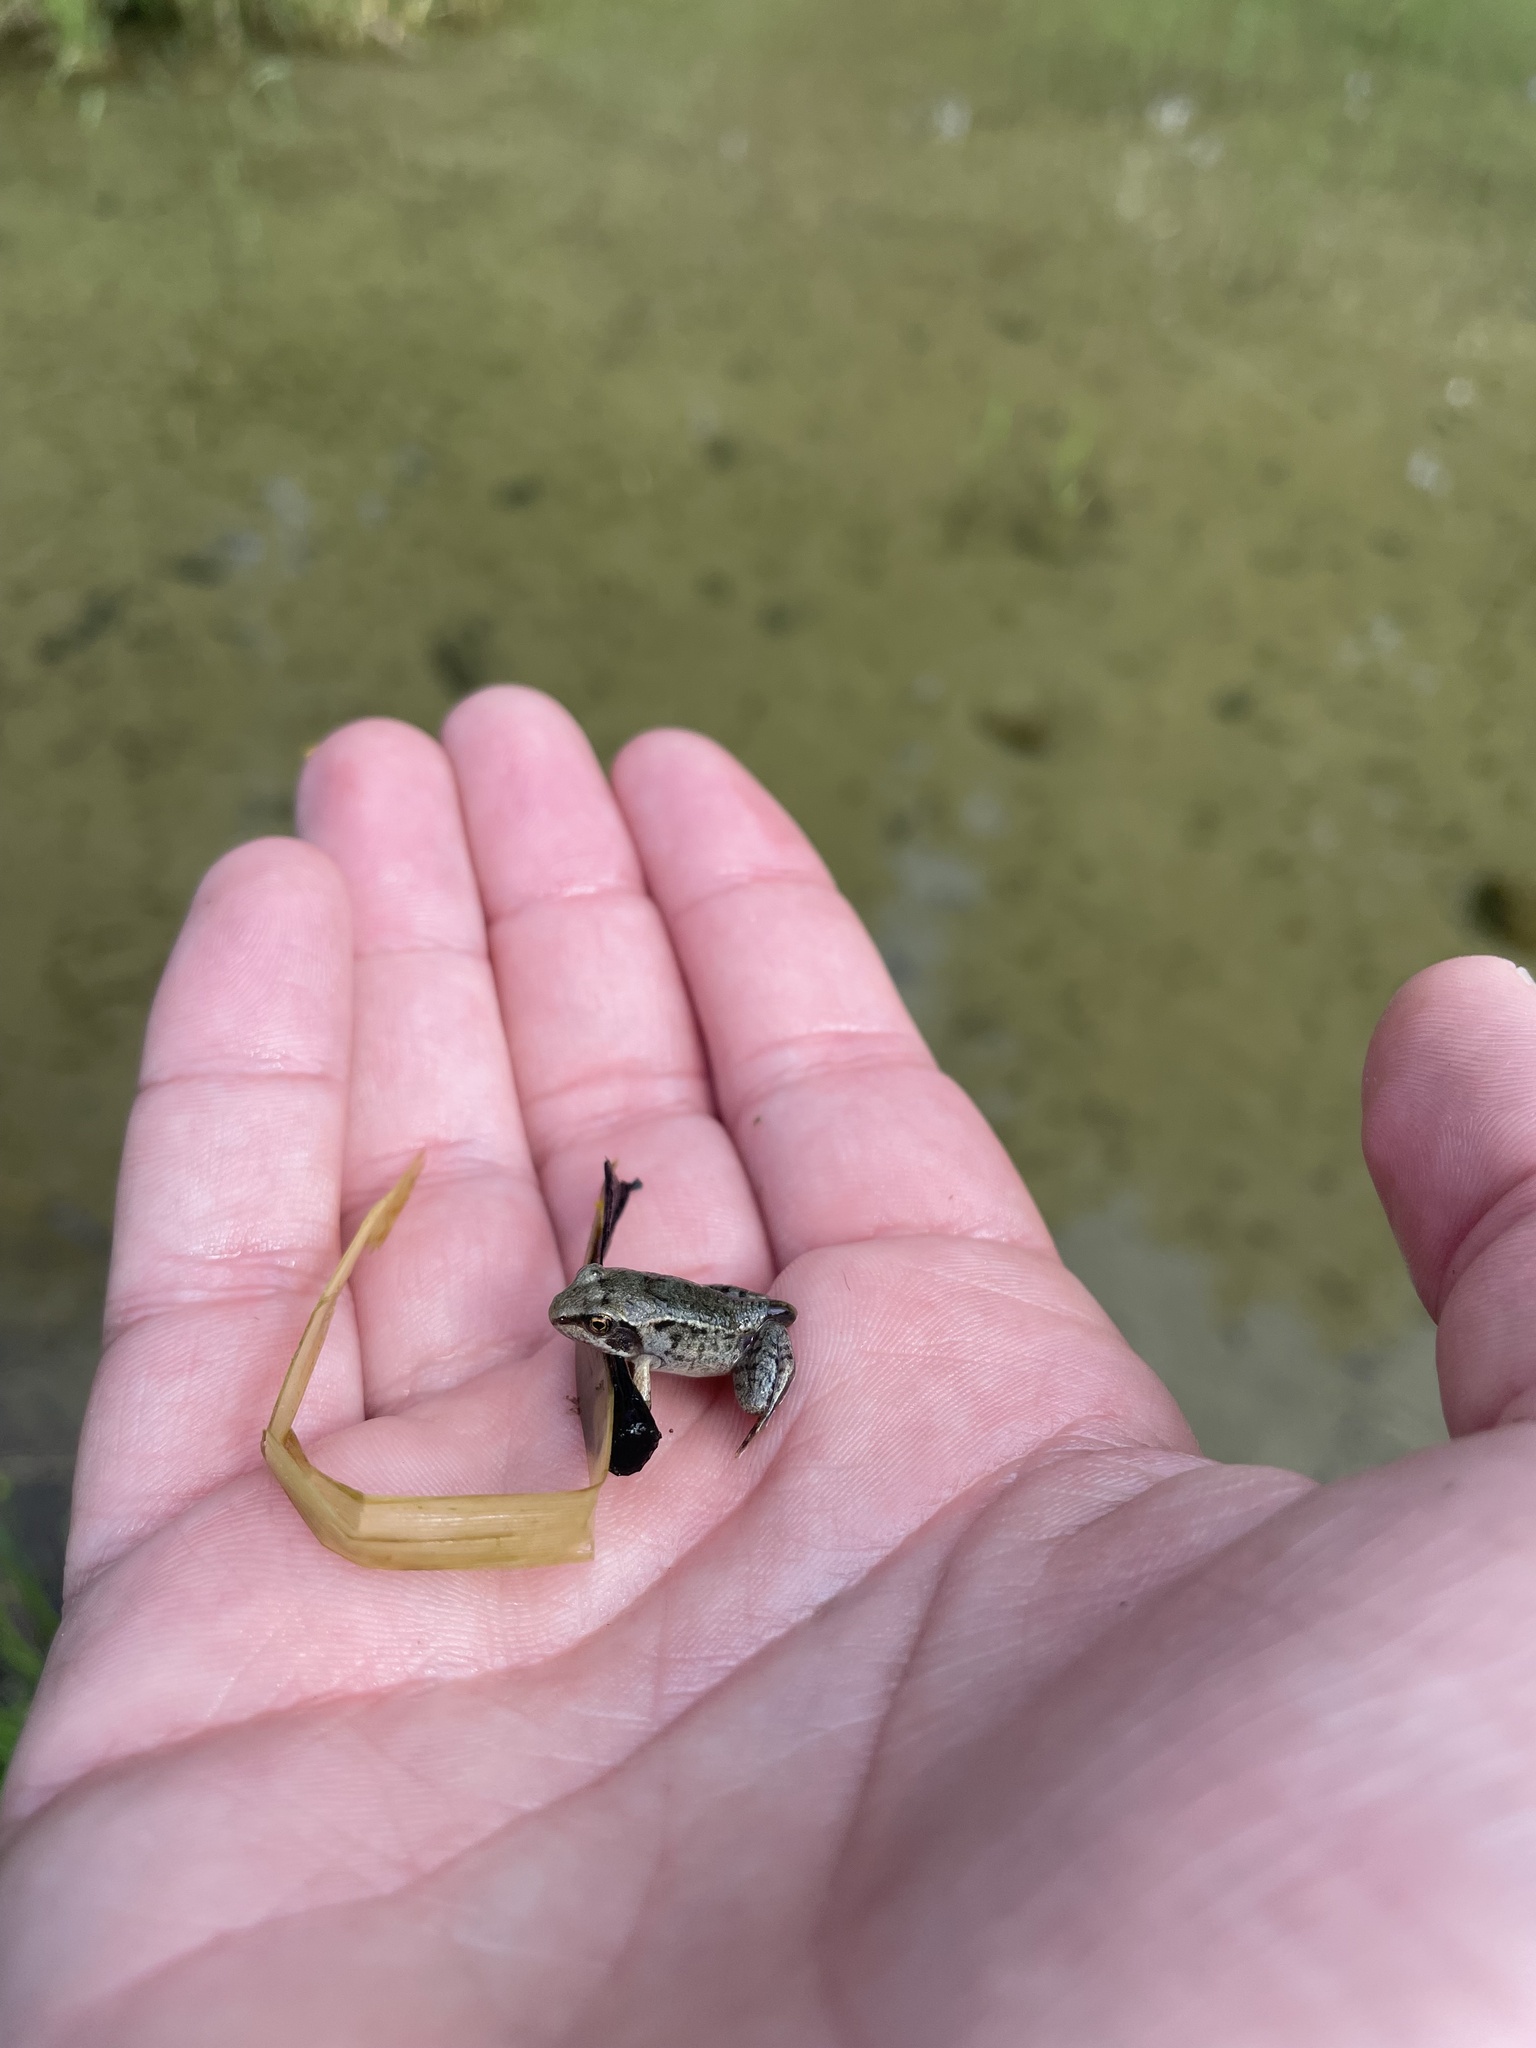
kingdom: Animalia
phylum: Chordata
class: Amphibia
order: Anura
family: Ranidae
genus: Rana
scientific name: Rana temporaria
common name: Common frog
